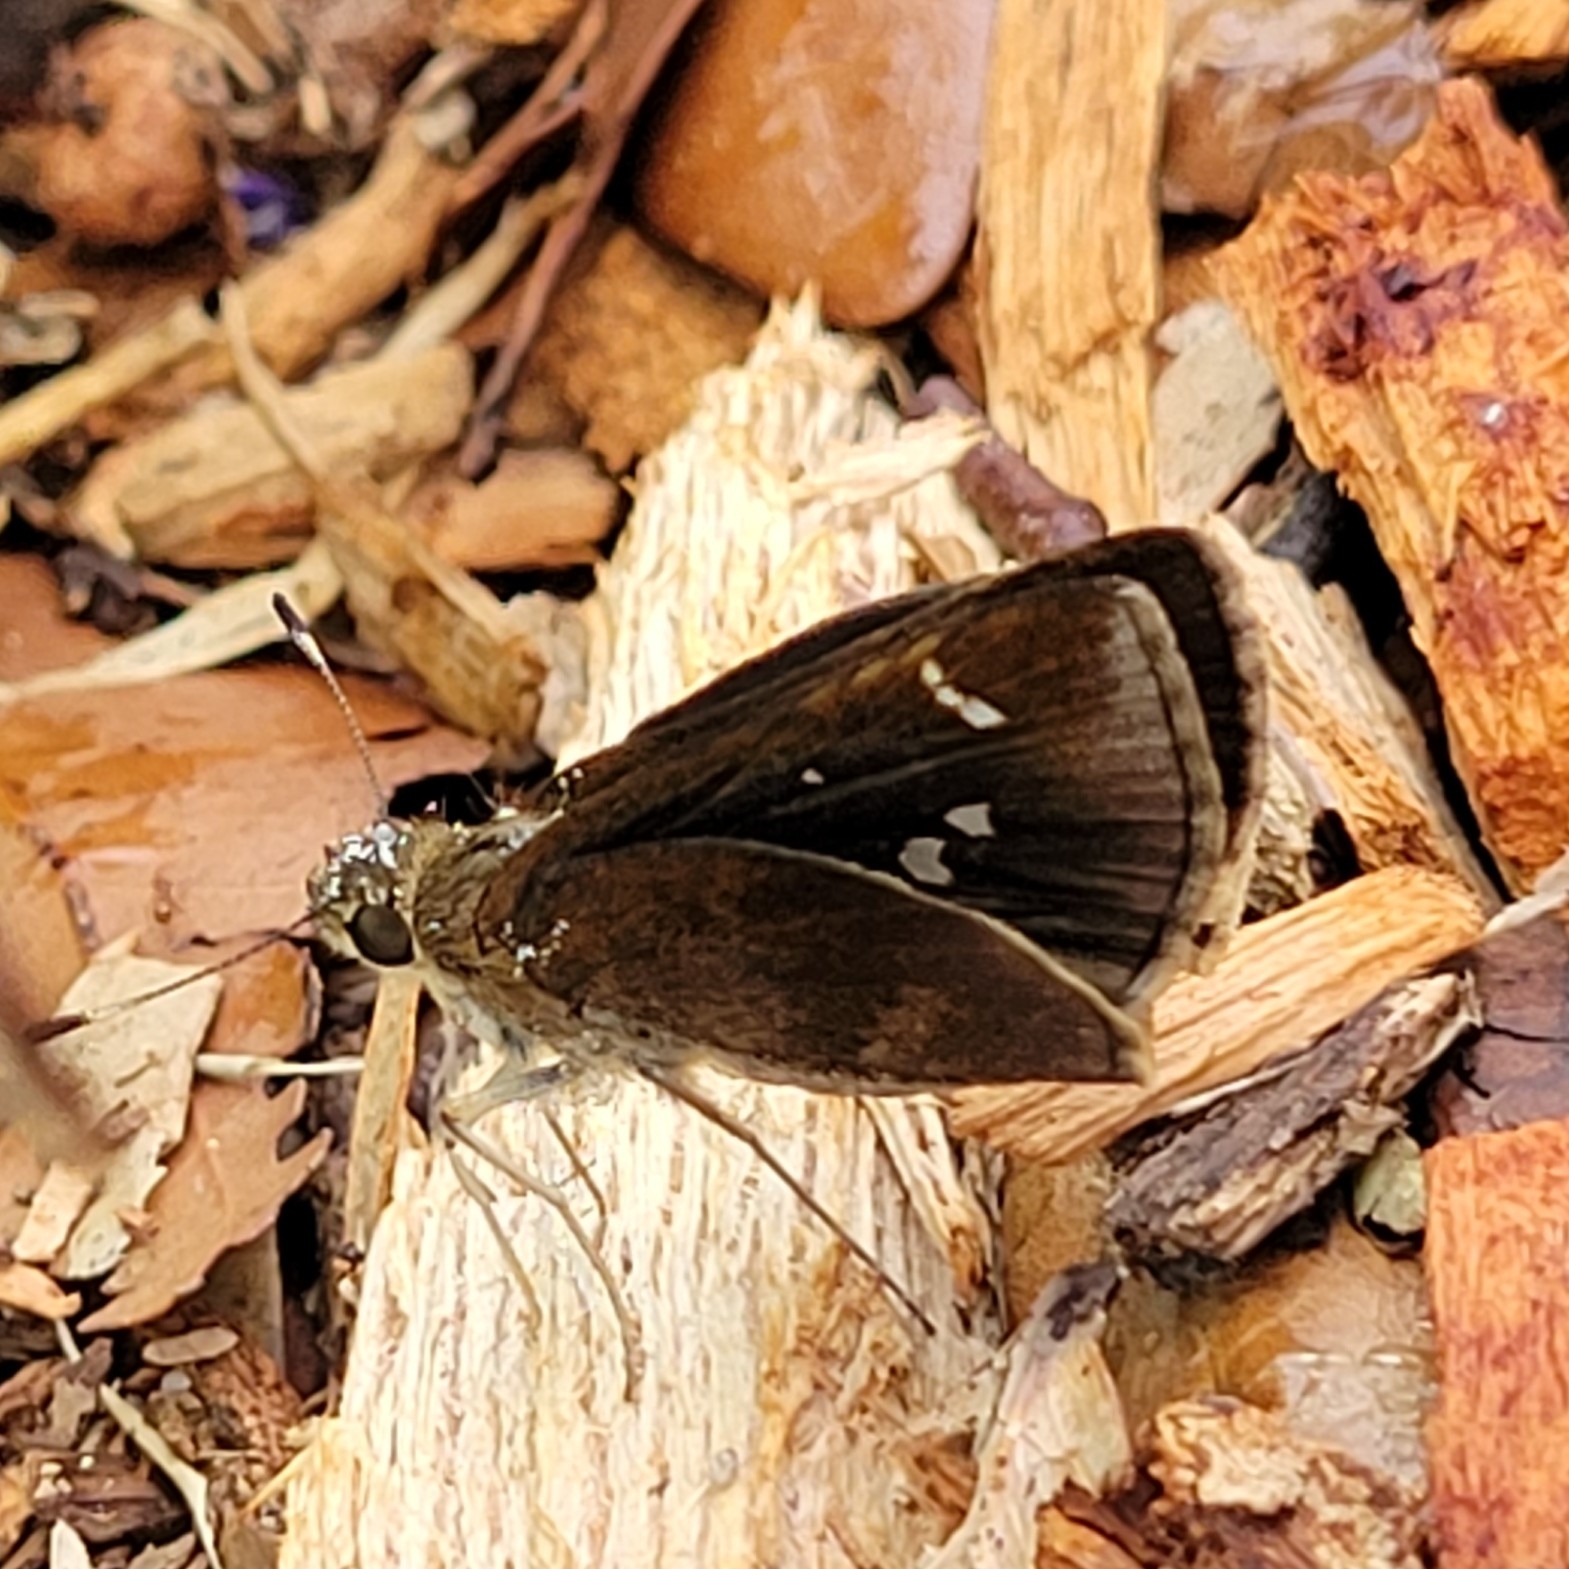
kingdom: Animalia
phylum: Arthropoda
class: Insecta
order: Lepidoptera
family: Hesperiidae
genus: Lerema
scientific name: Lerema accius
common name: Clouded skipper
